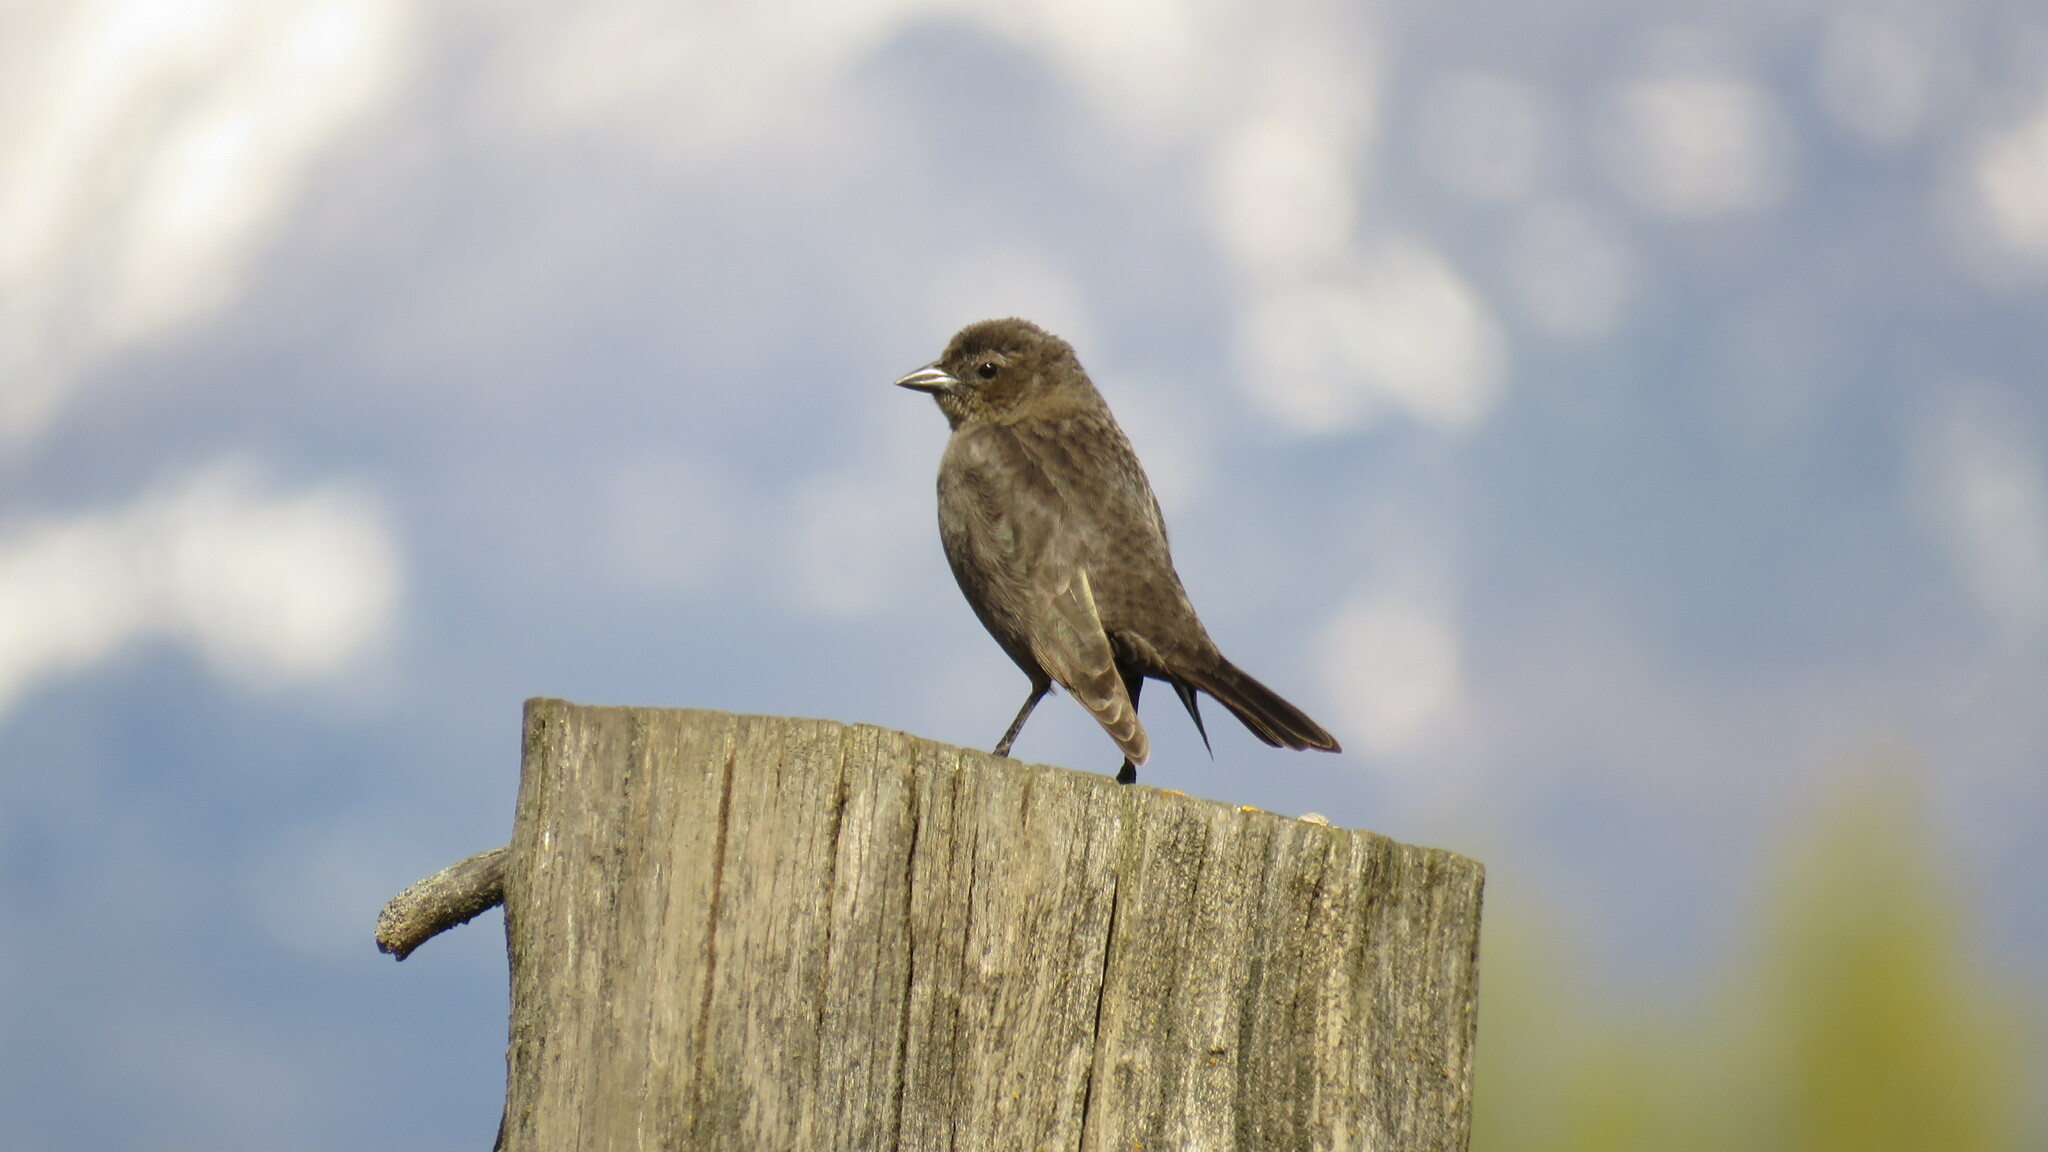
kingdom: Animalia
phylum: Chordata
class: Aves
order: Passeriformes
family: Icteridae
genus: Molothrus
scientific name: Molothrus bonariensis
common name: Shiny cowbird
